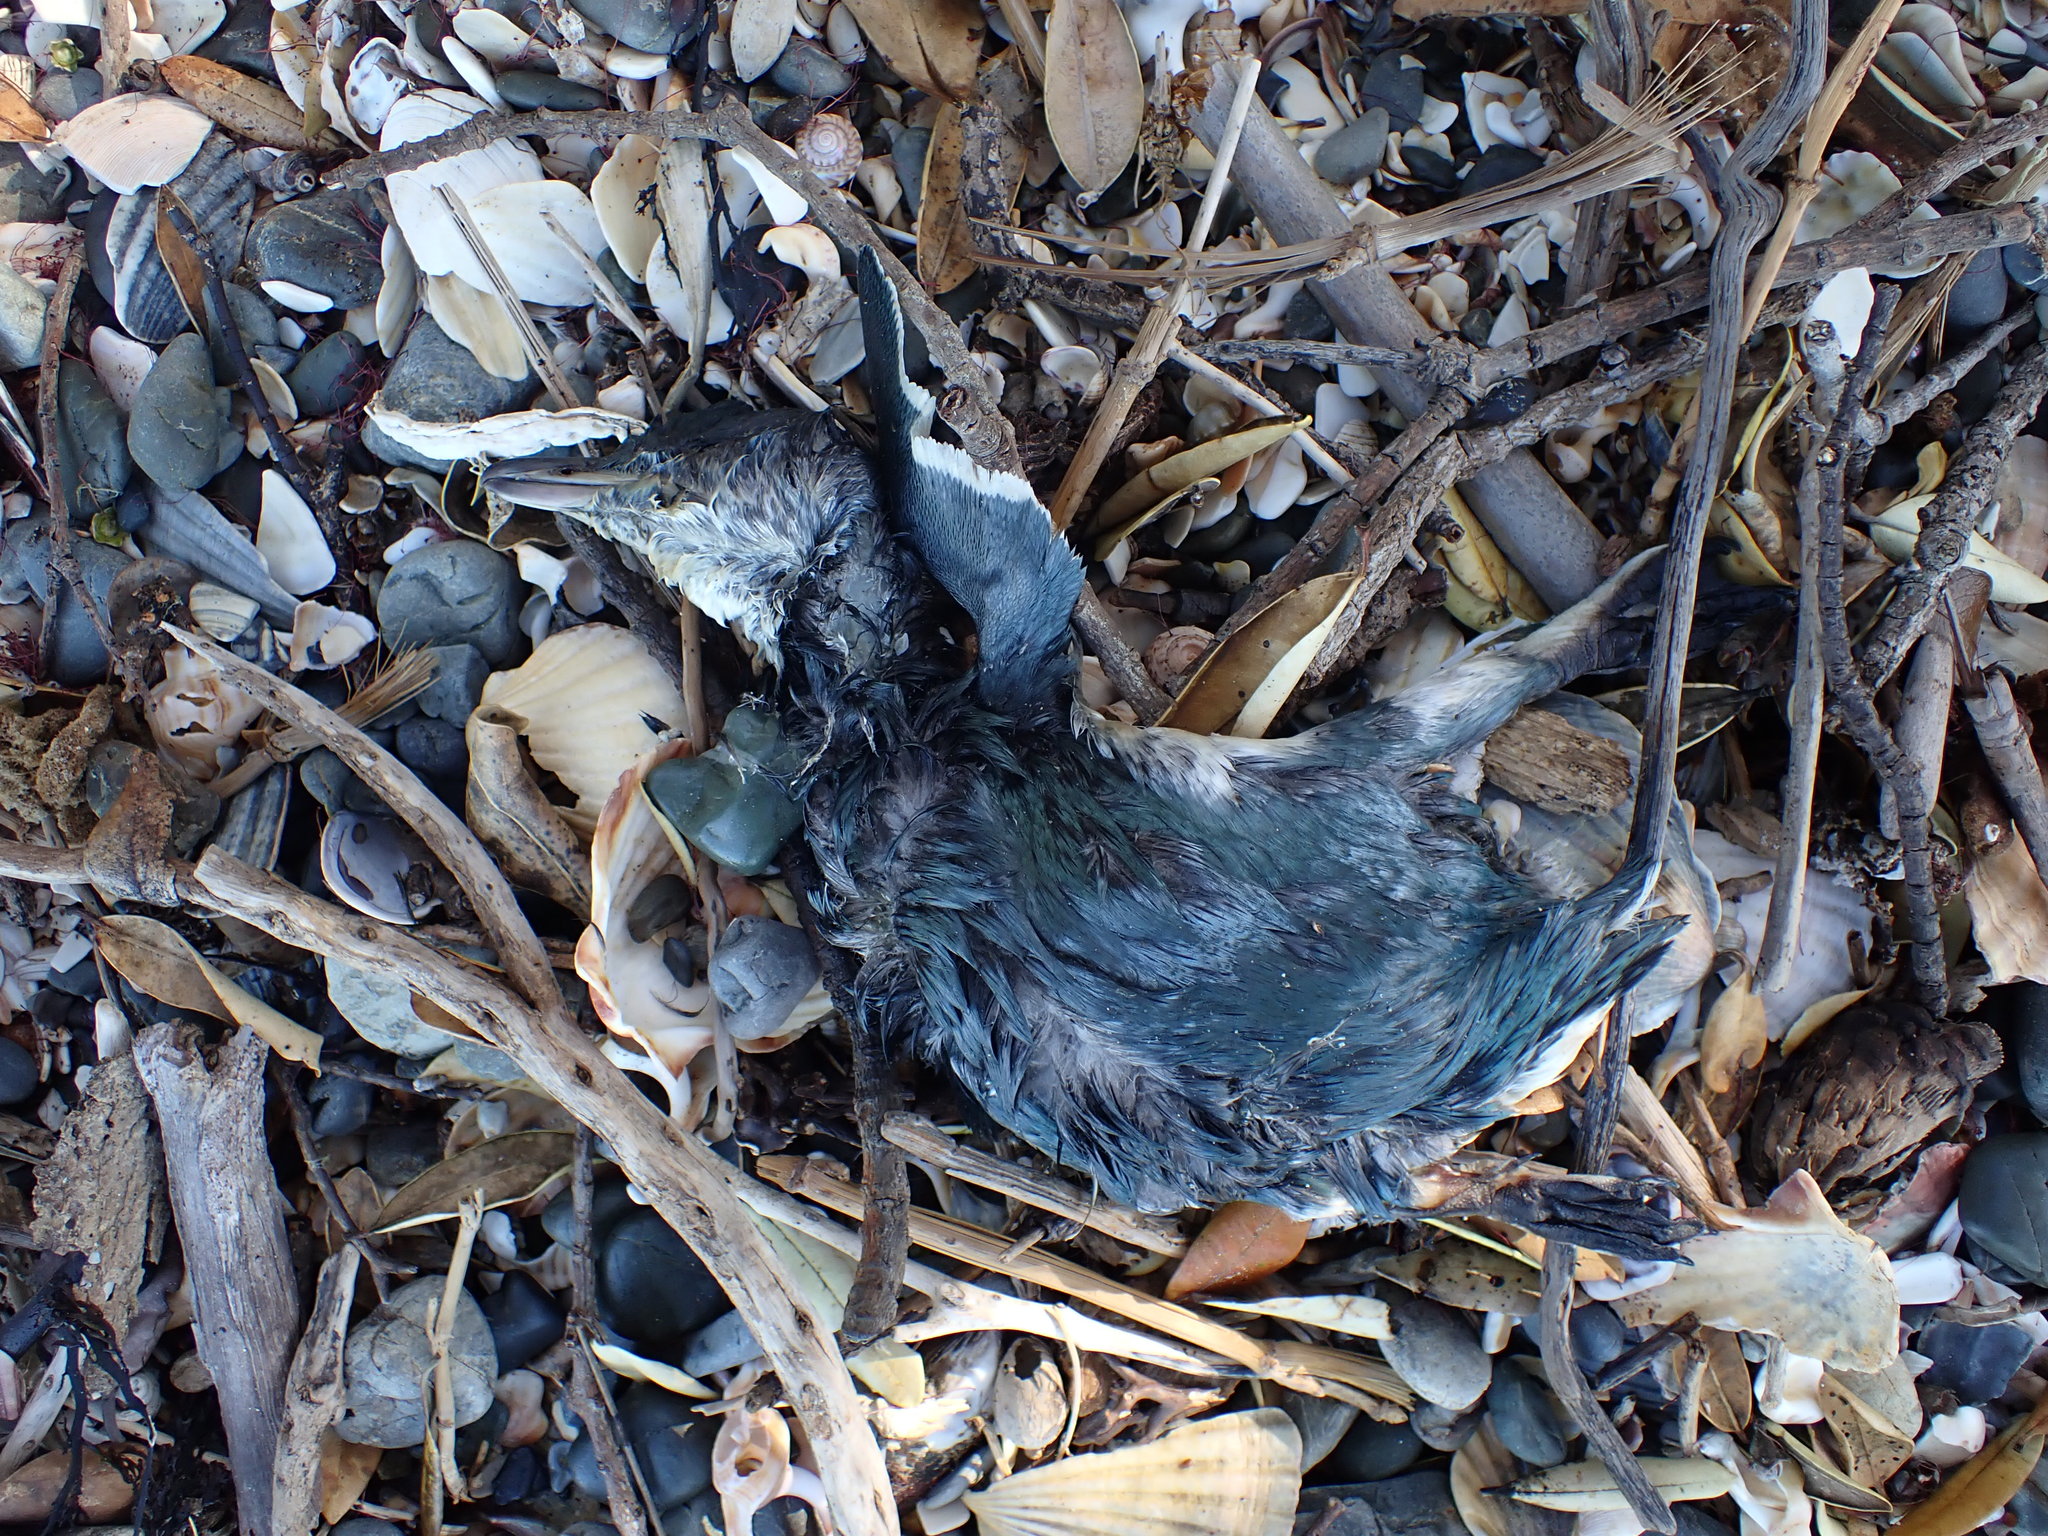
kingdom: Animalia
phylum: Chordata
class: Aves
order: Sphenisciformes
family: Spheniscidae
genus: Eudyptula
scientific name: Eudyptula minor
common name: Little penguin
